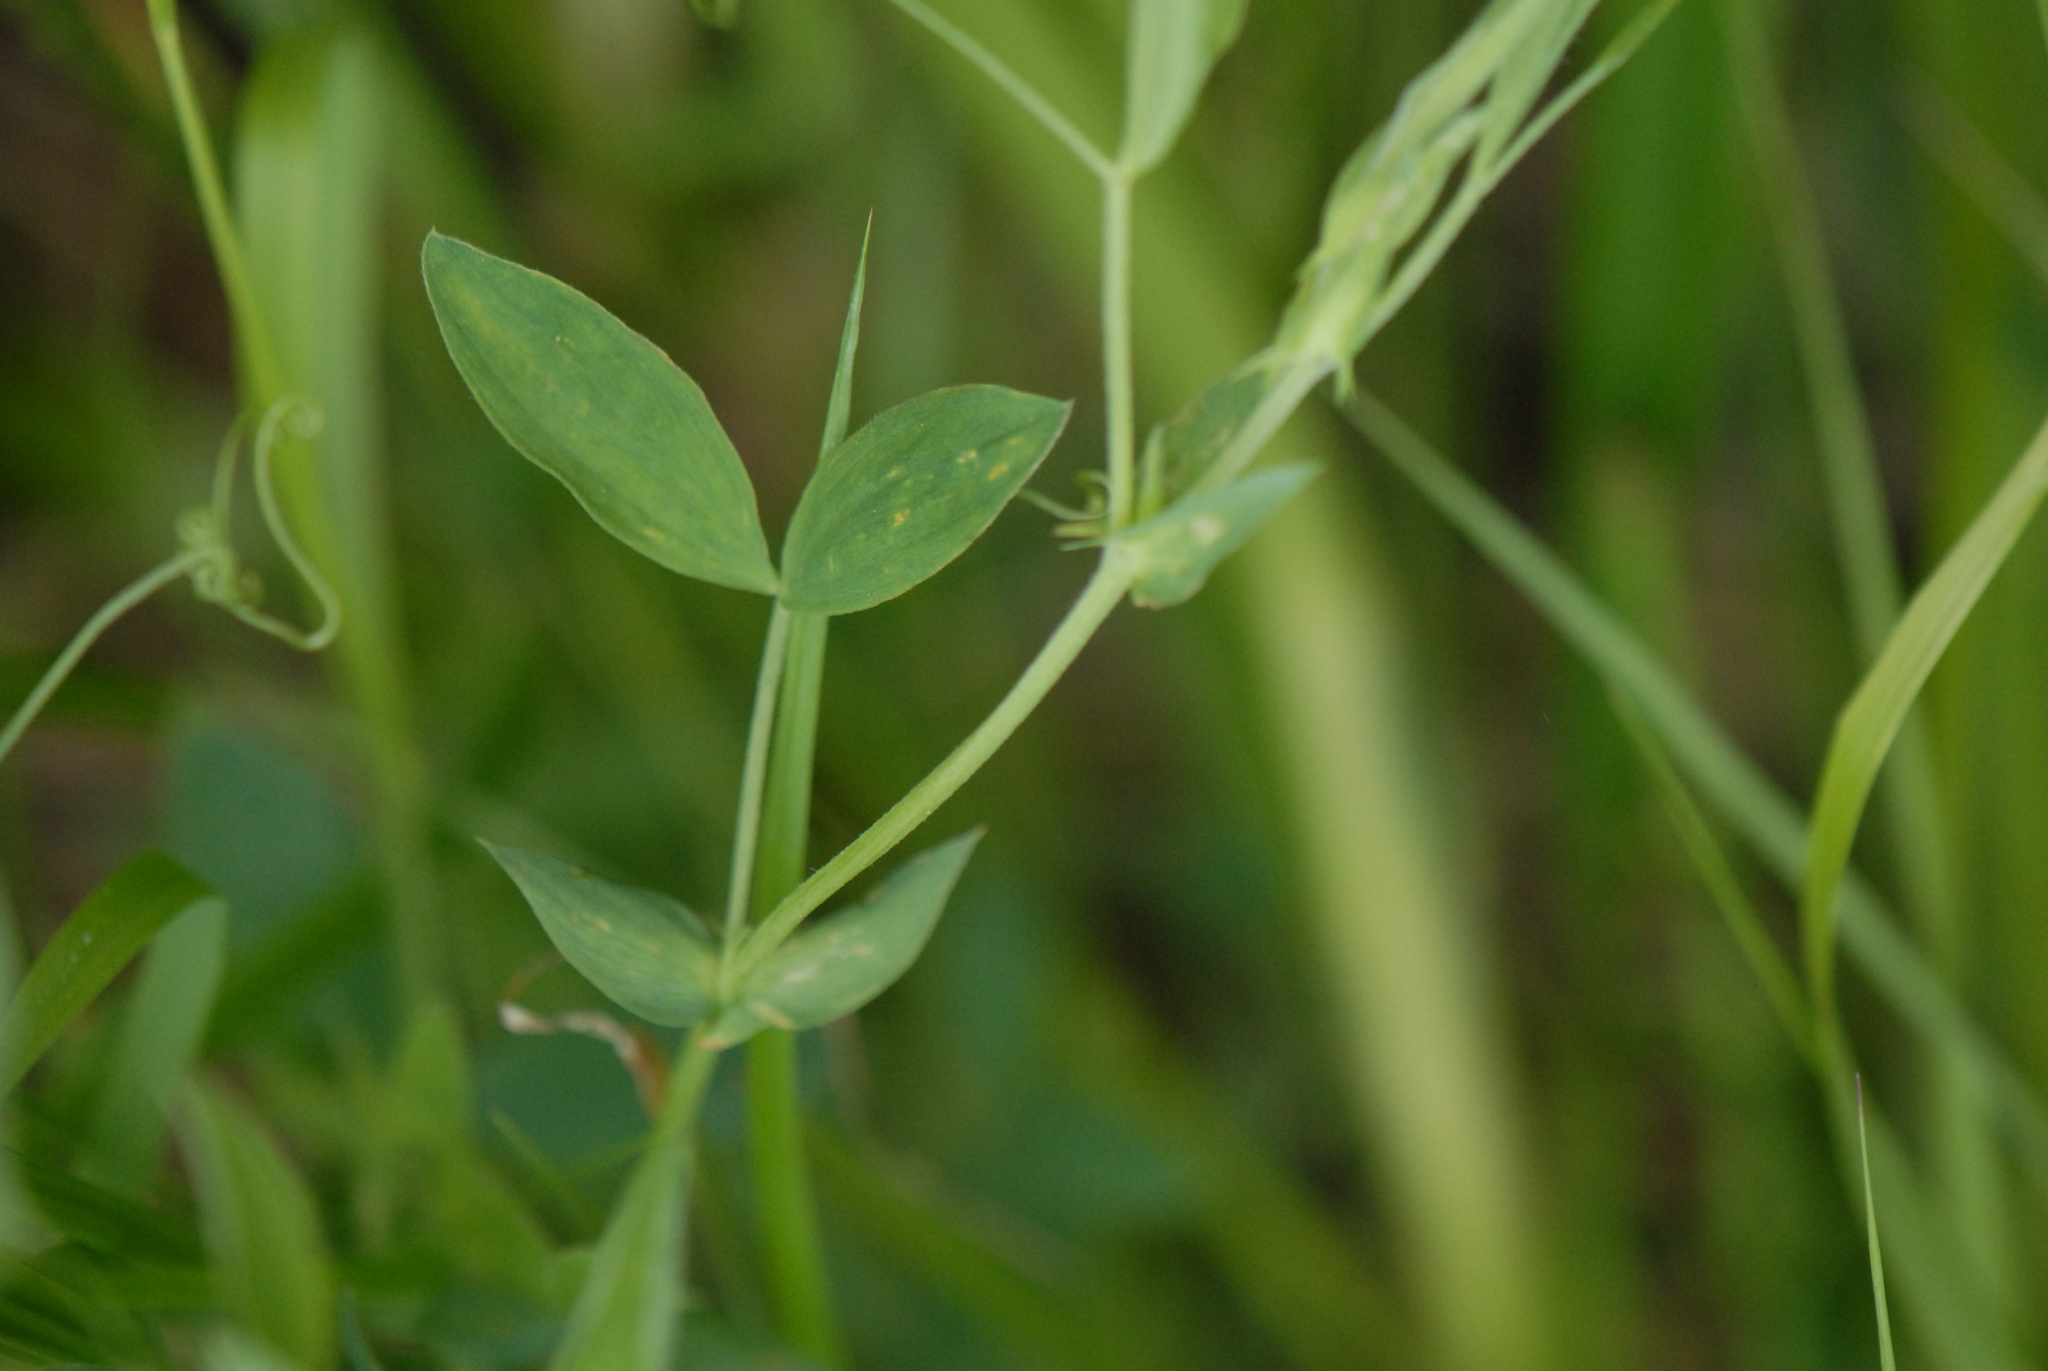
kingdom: Plantae
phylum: Tracheophyta
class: Magnoliopsida
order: Fabales
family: Fabaceae
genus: Lathyrus
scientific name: Lathyrus pratensis
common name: Meadow vetchling
